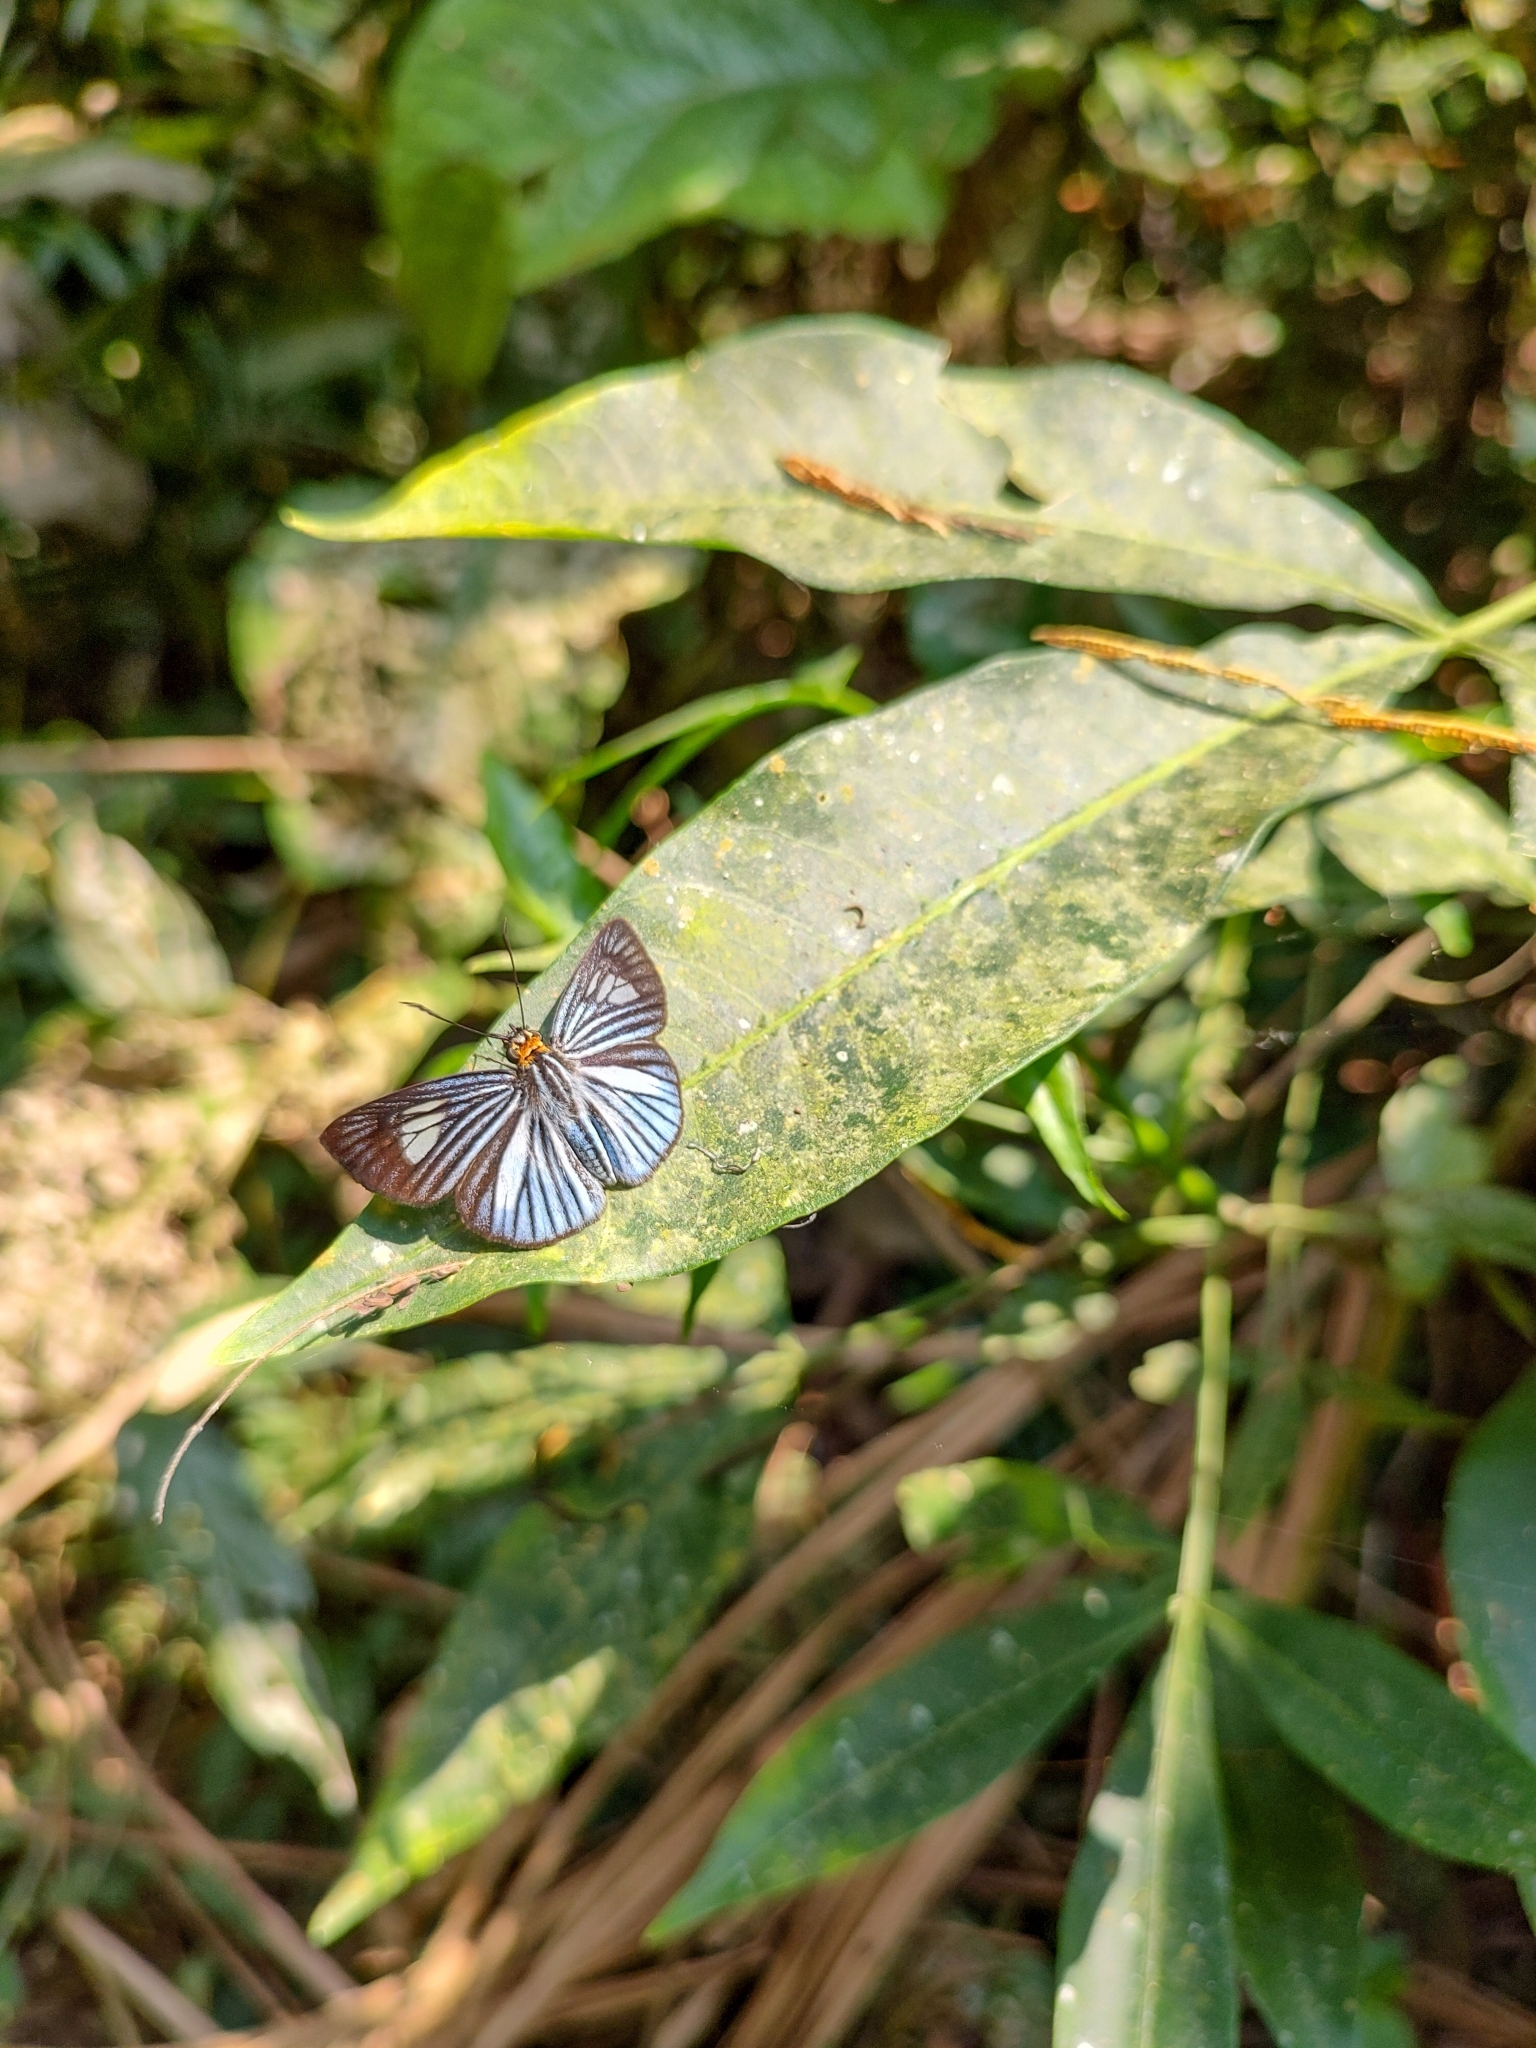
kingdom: Animalia
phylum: Arthropoda
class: Insecta
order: Lepidoptera
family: Hesperiidae
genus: Pythonides
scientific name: Pythonides lancea
